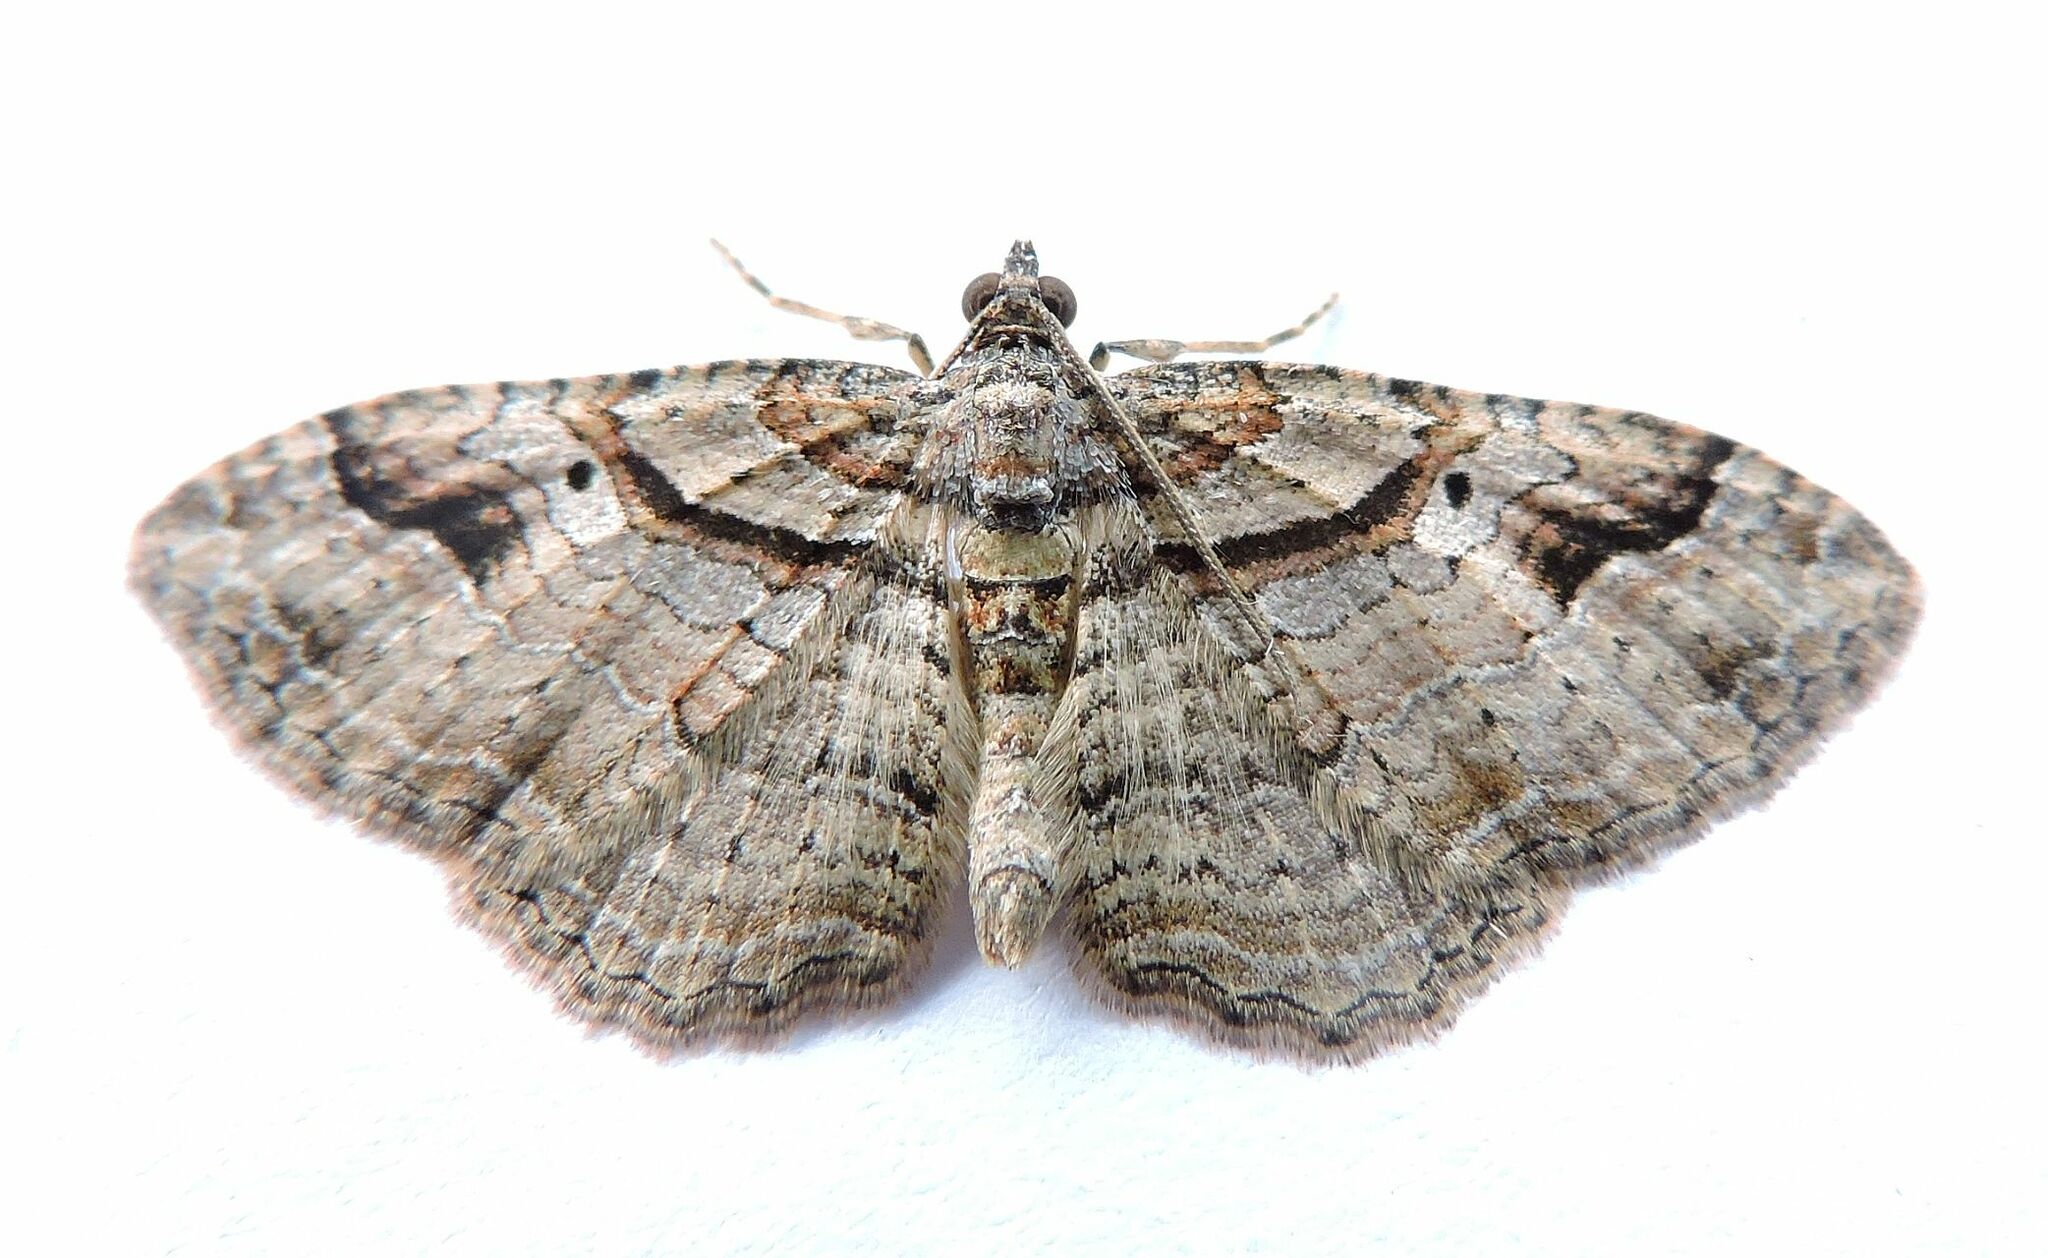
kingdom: Animalia
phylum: Arthropoda
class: Insecta
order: Lepidoptera
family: Geometridae
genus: Costaconvexa
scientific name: Costaconvexa centrostrigaria
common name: Bent-line carpet
